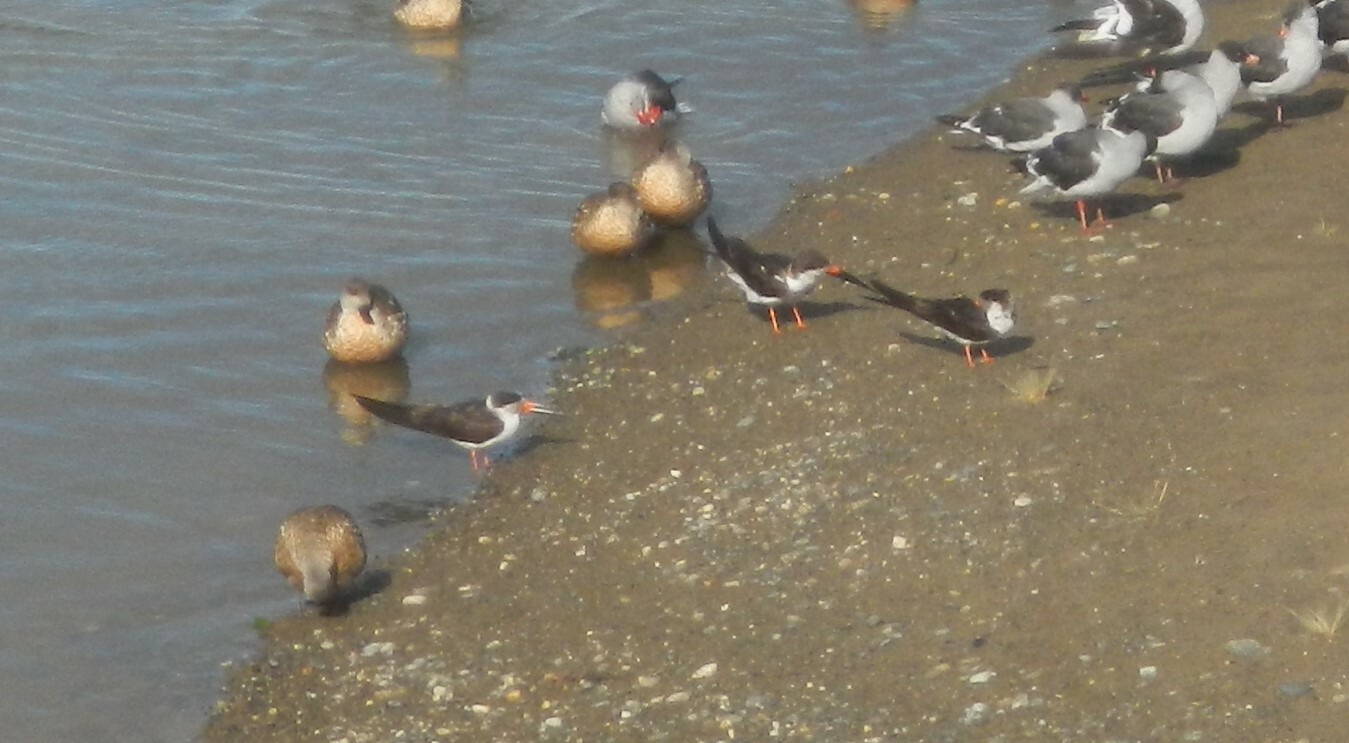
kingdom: Animalia
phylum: Chordata
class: Aves
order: Charadriiformes
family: Laridae
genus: Rynchops
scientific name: Rynchops niger
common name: Black skimmer
